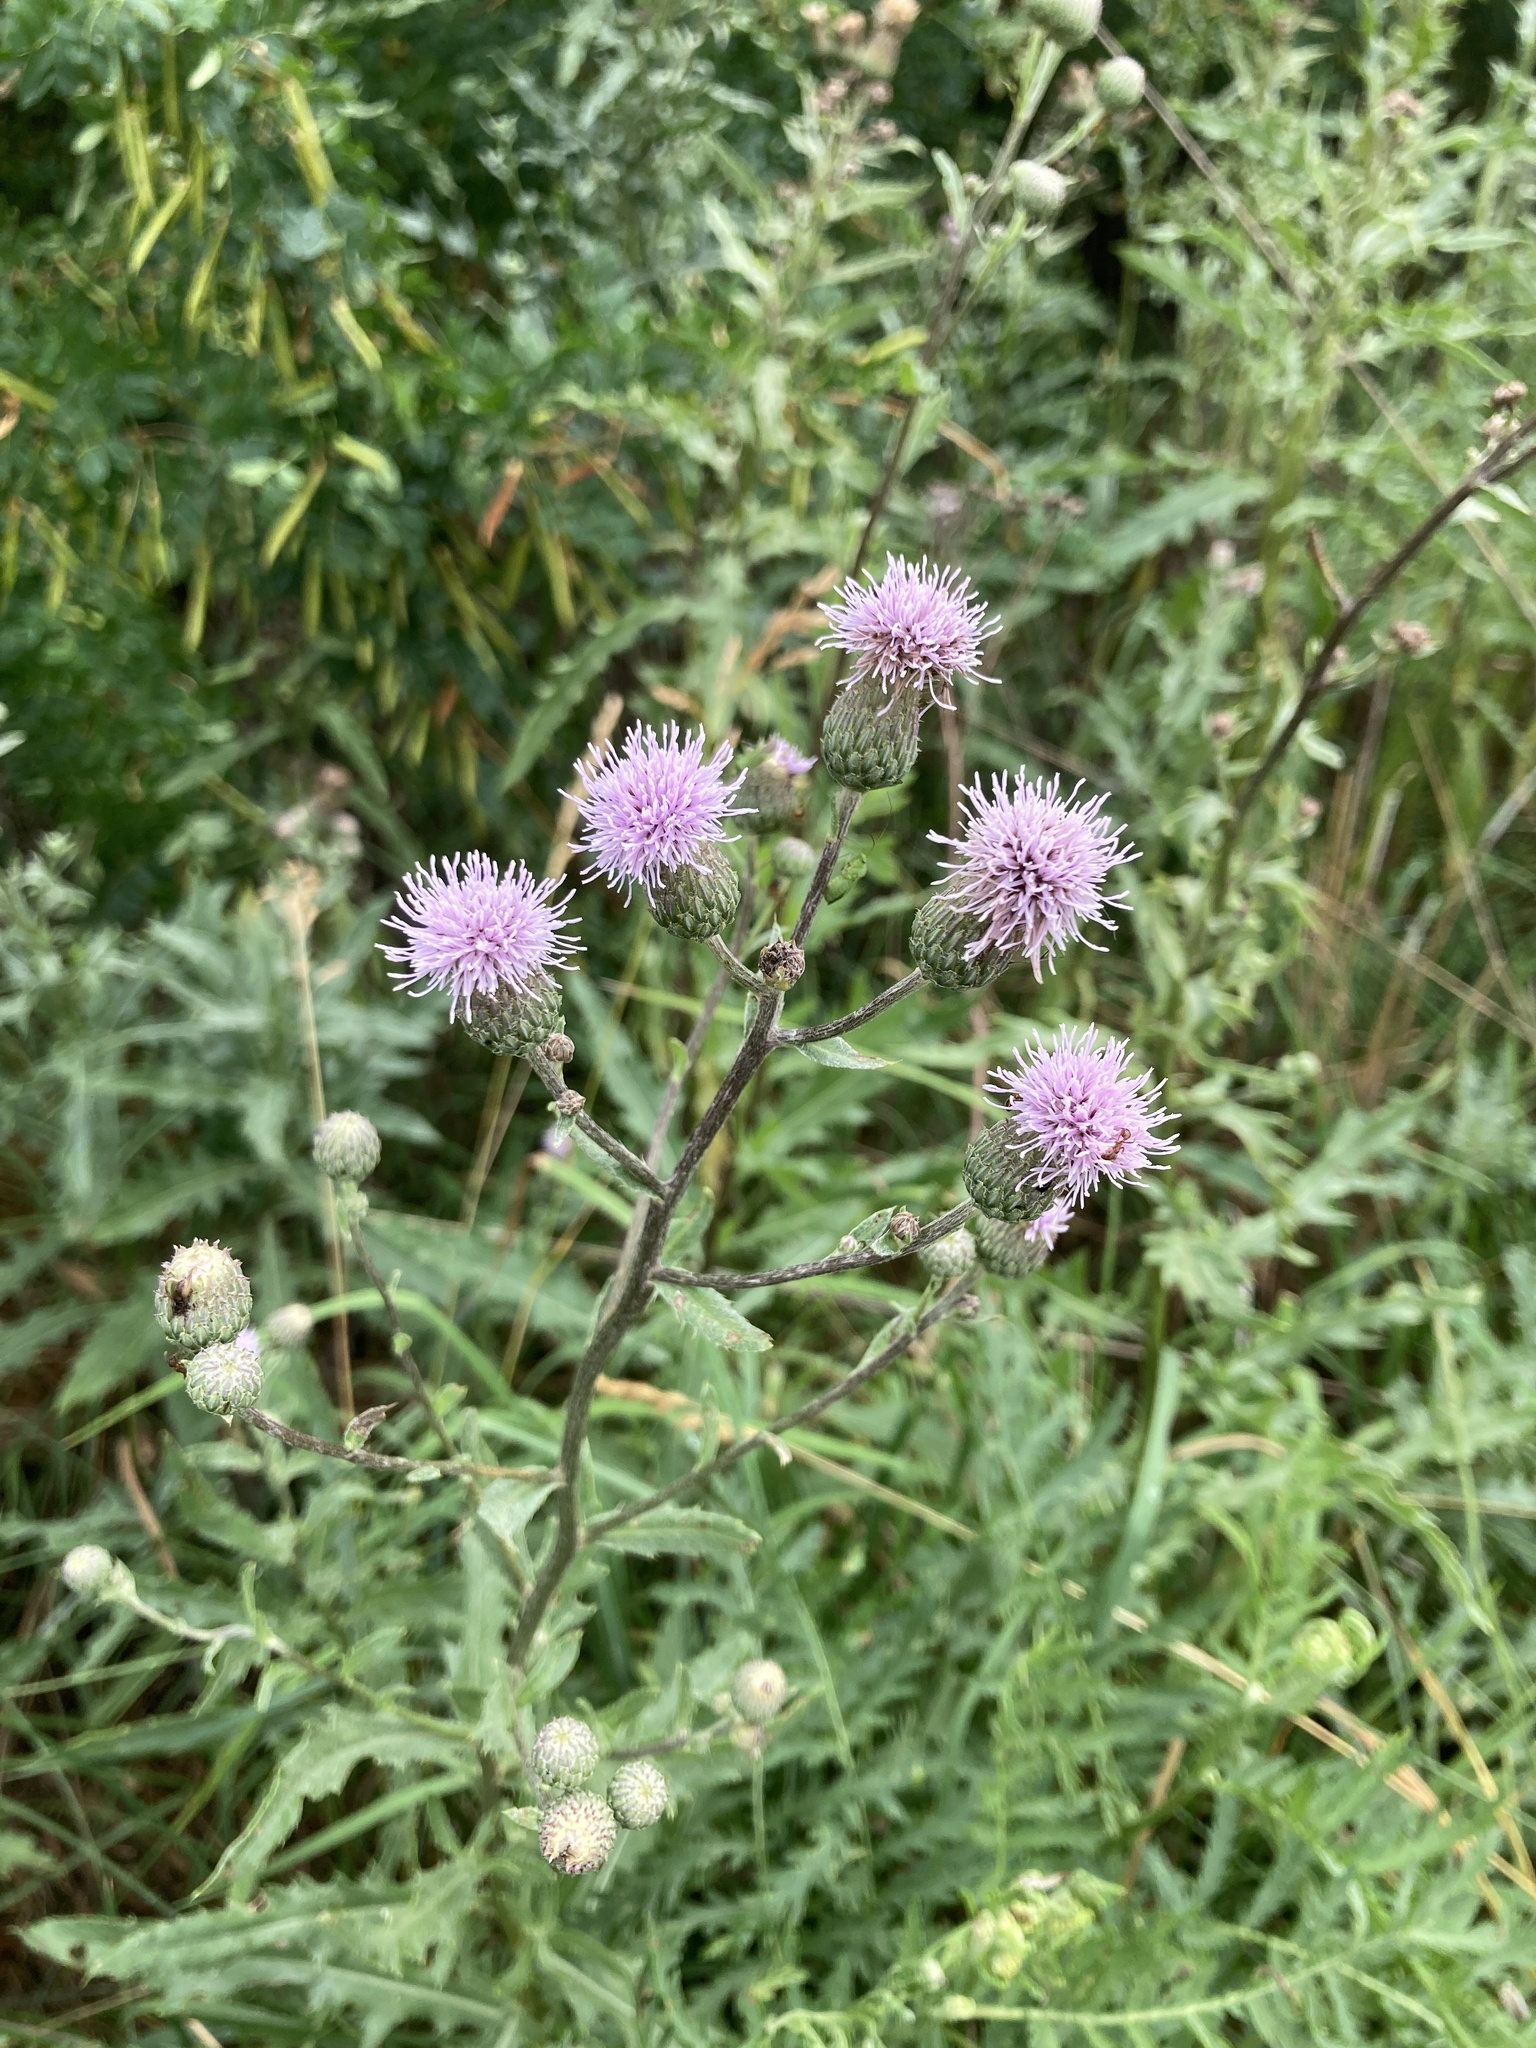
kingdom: Plantae
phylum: Tracheophyta
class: Magnoliopsida
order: Asterales
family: Asteraceae
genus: Cirsium
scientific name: Cirsium arvense
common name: Creeping thistle
